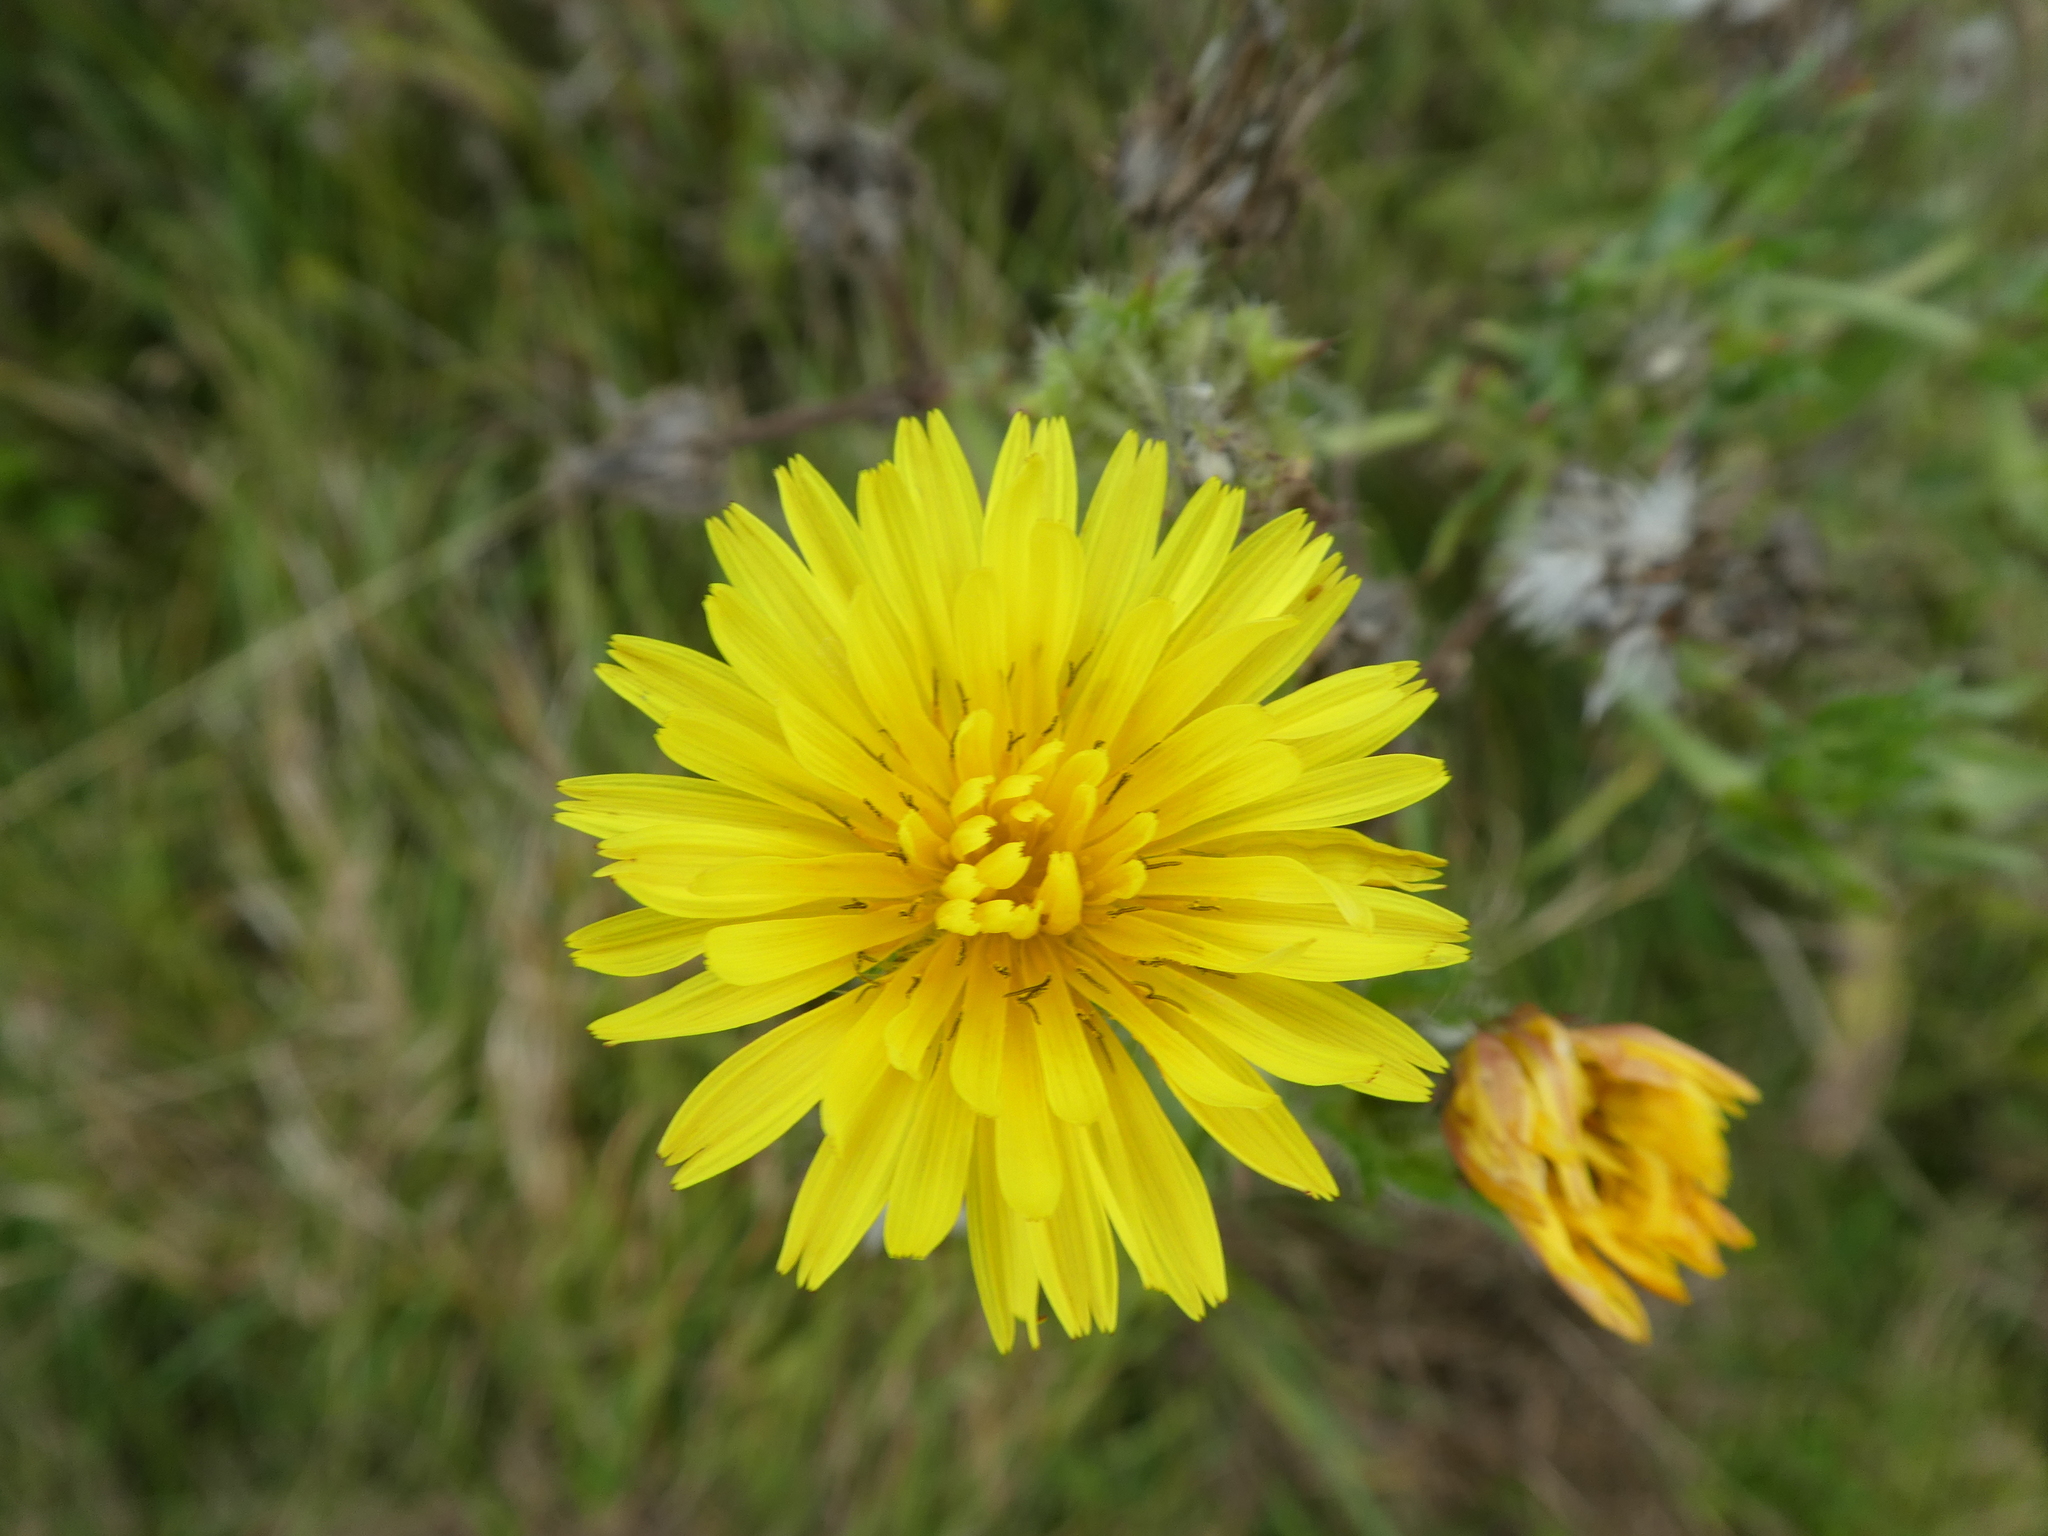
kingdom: Plantae
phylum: Tracheophyta
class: Magnoliopsida
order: Asterales
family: Asteraceae
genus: Helminthotheca
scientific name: Helminthotheca echioides
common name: Ox-tongue
